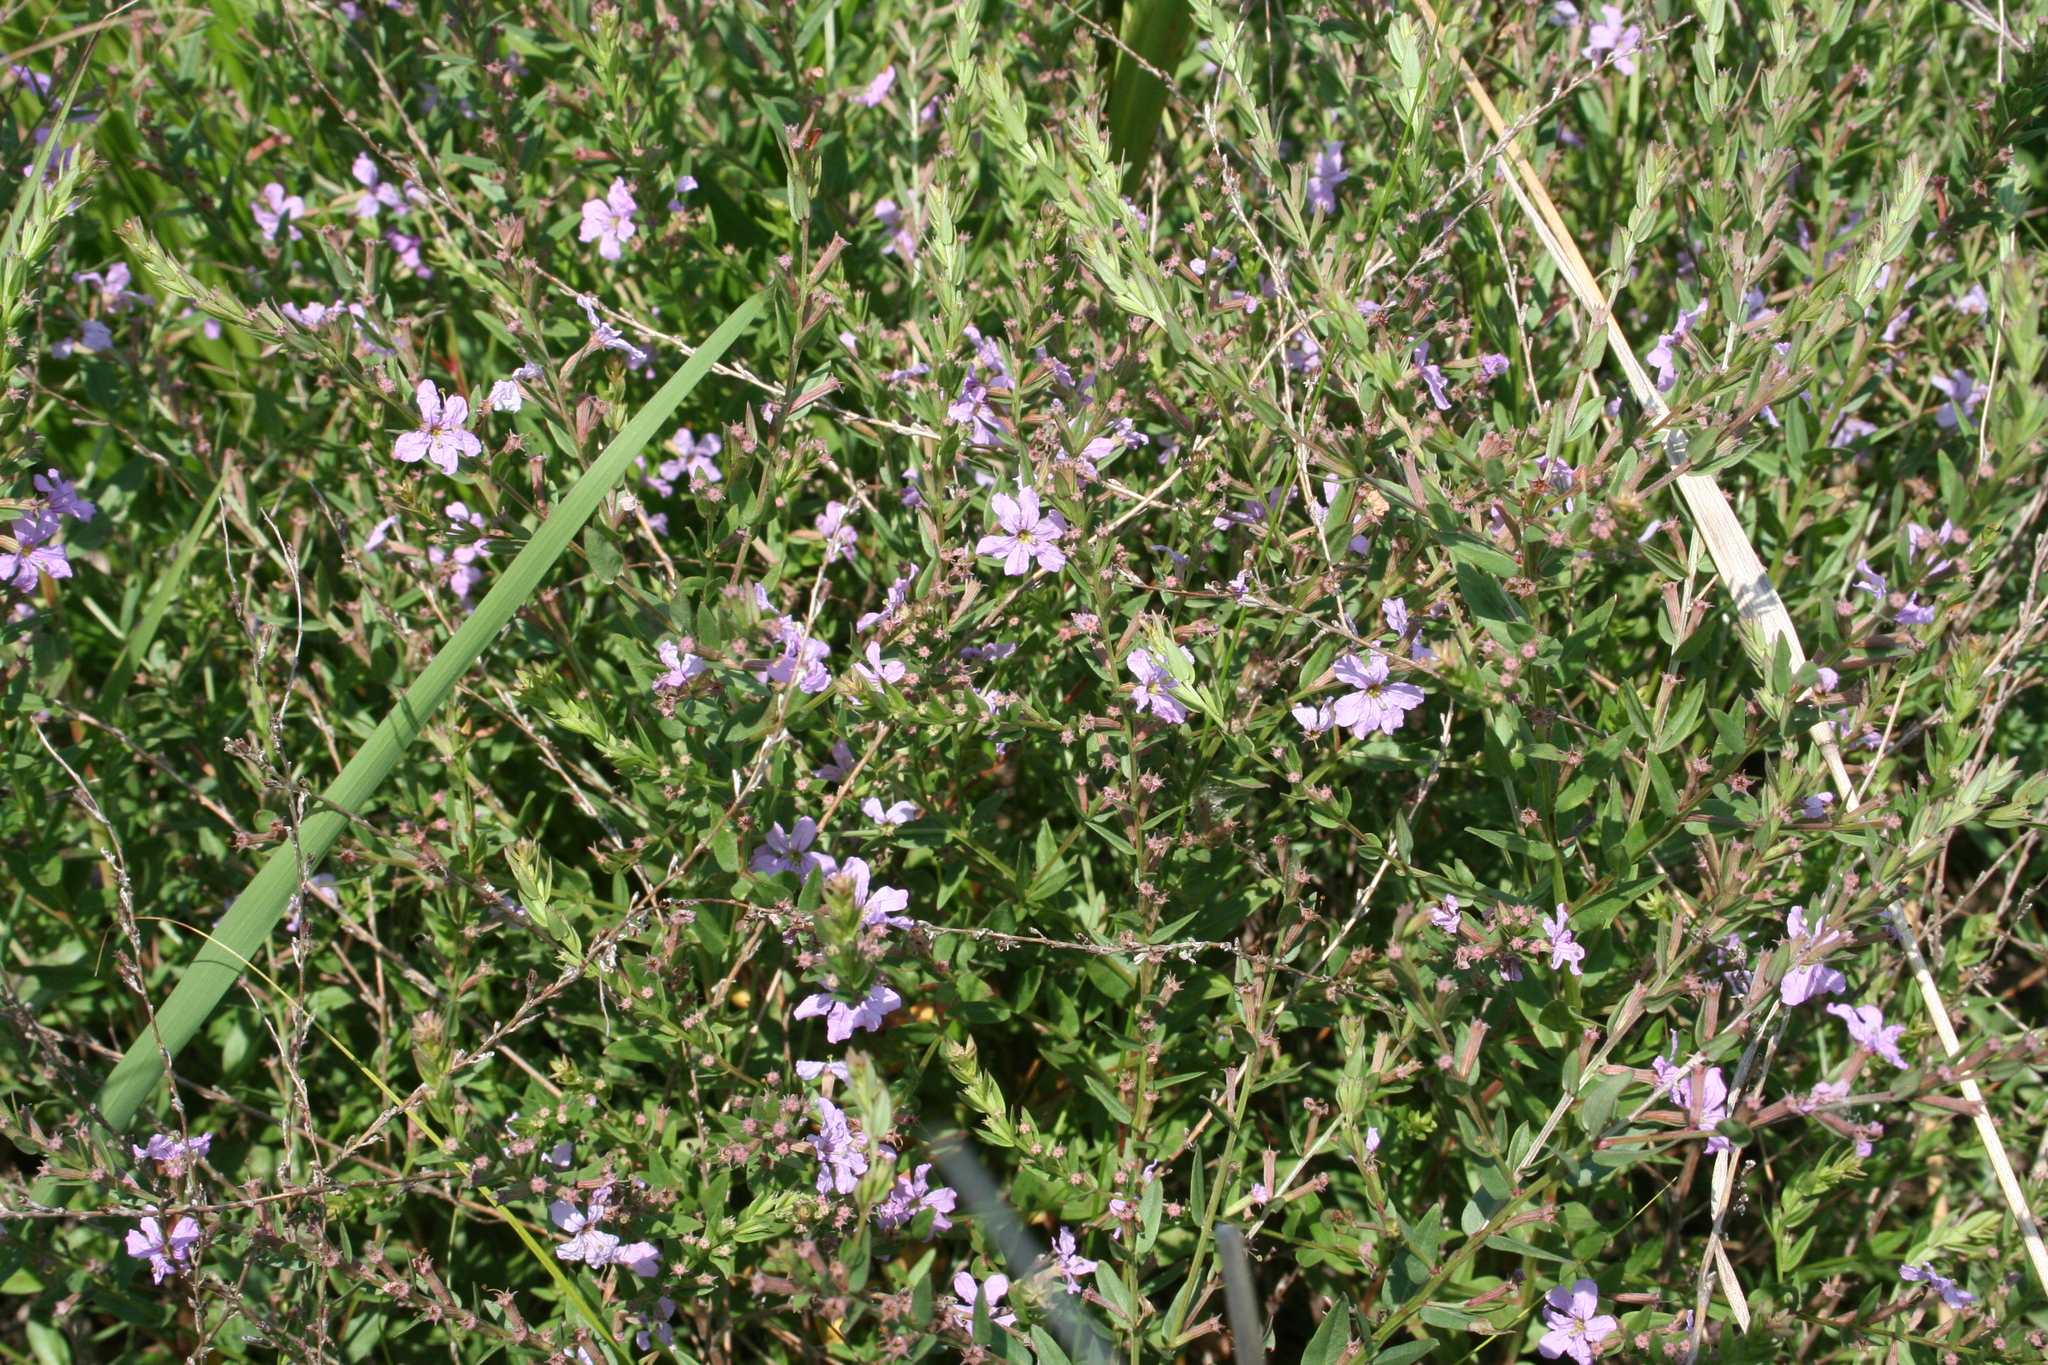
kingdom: Plantae
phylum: Tracheophyta
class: Magnoliopsida
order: Myrtales
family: Lythraceae
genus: Lythrum
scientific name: Lythrum alatum
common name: Winged loosestrife
